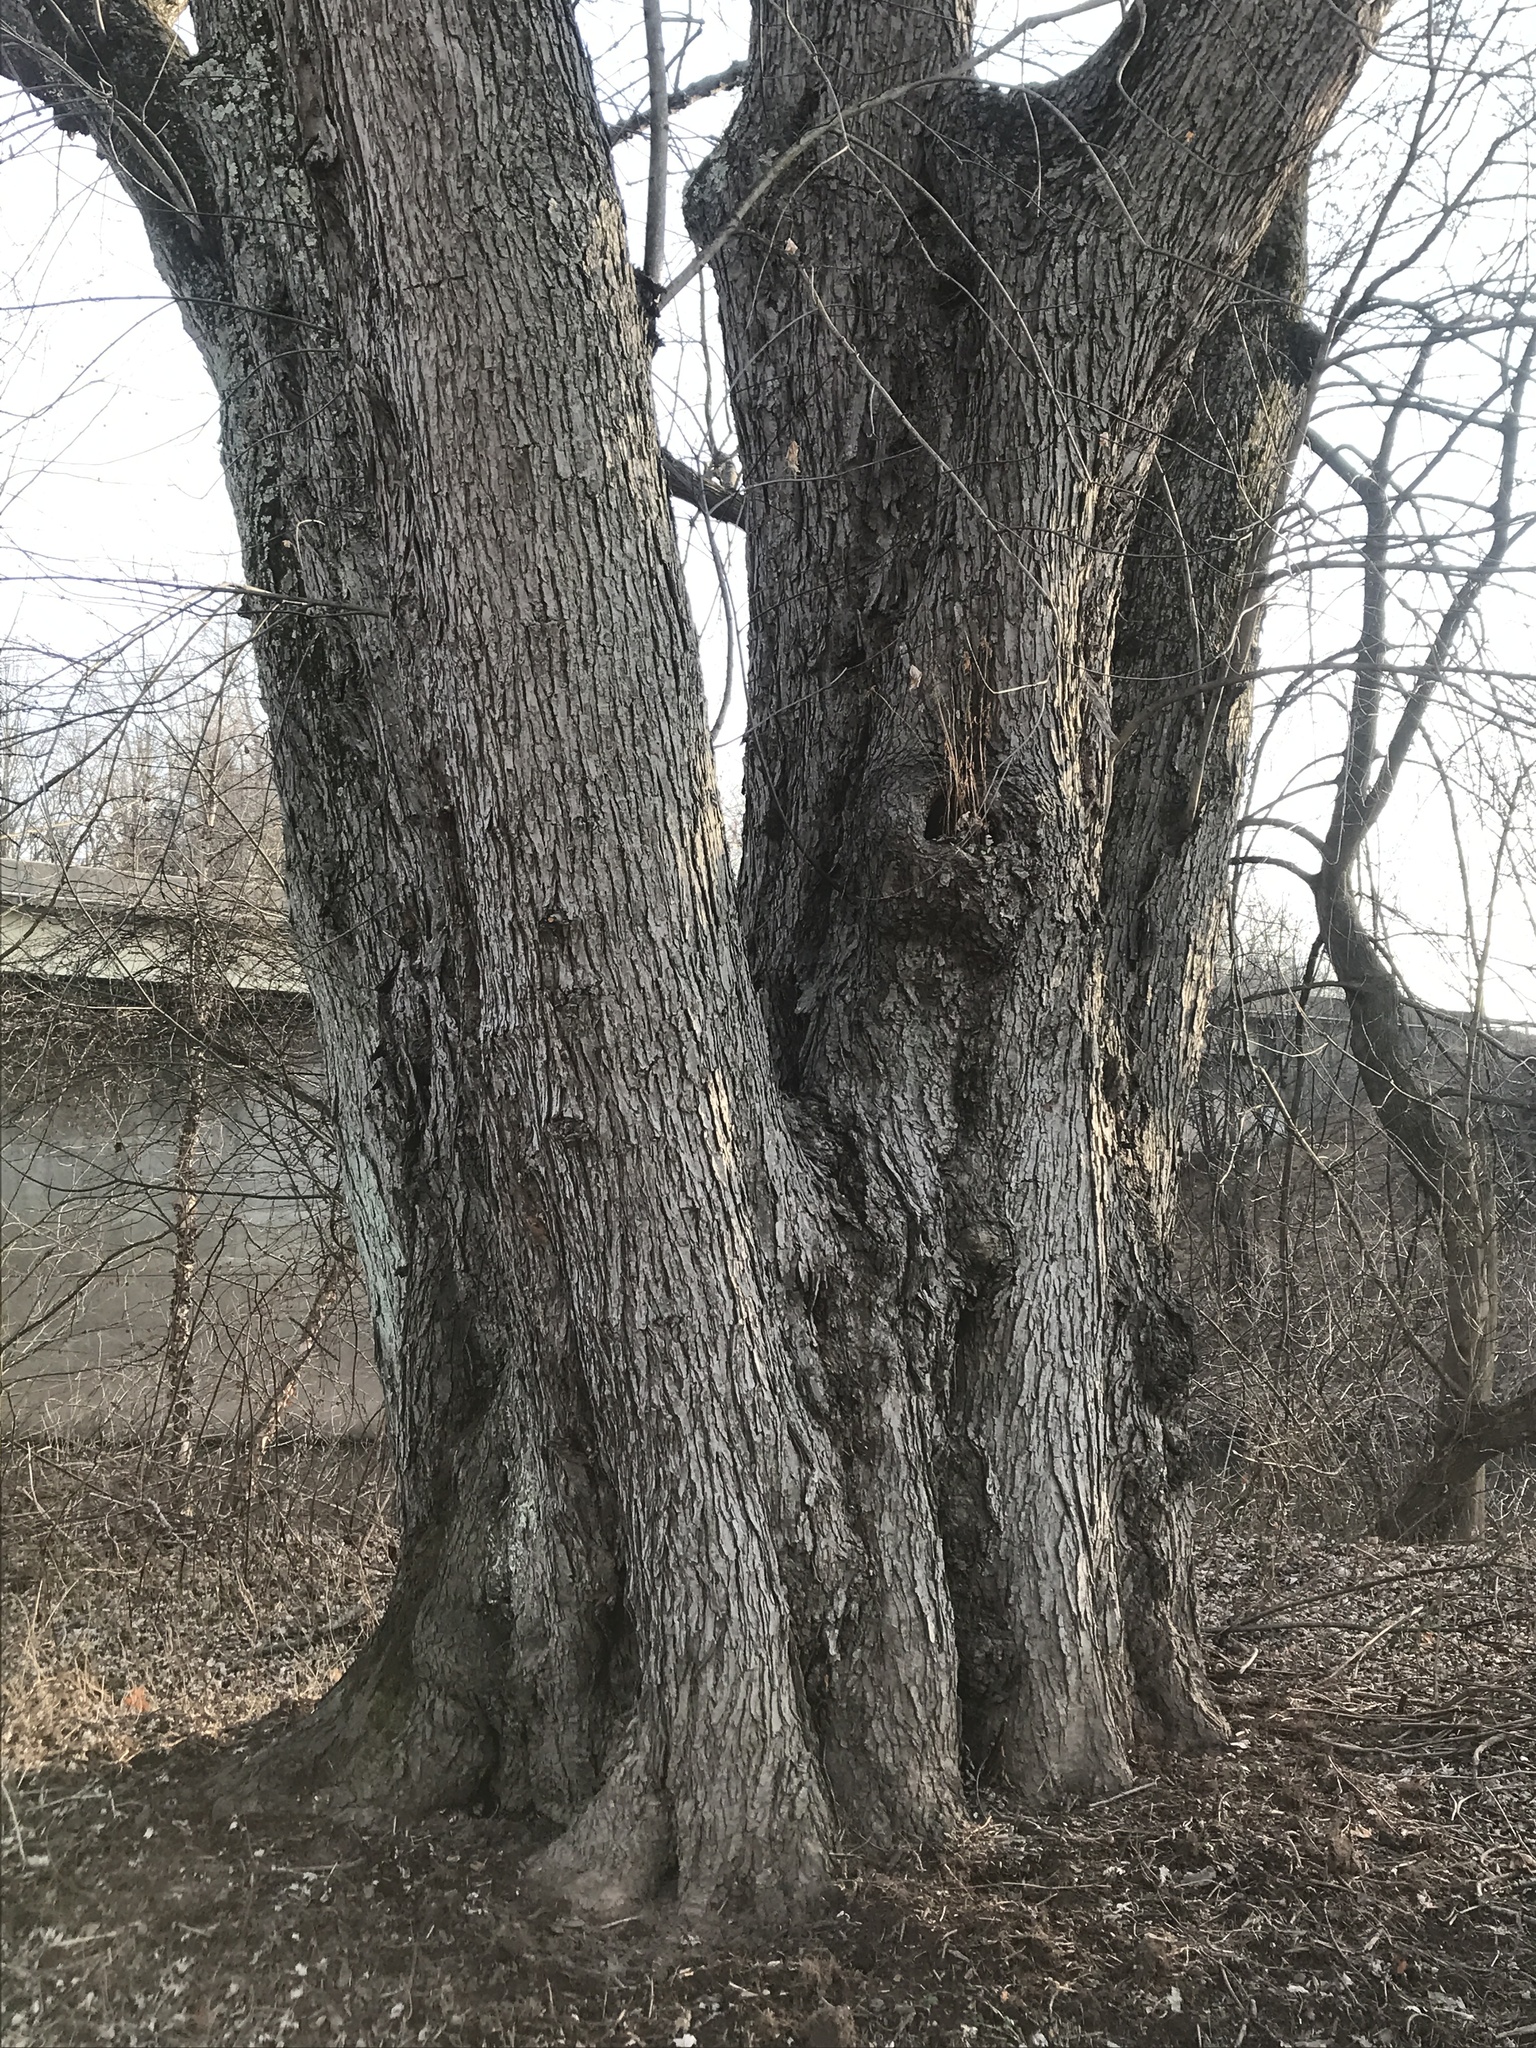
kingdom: Plantae
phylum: Tracheophyta
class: Magnoliopsida
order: Sapindales
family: Sapindaceae
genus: Acer
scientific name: Acer saccharinum
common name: Silver maple
